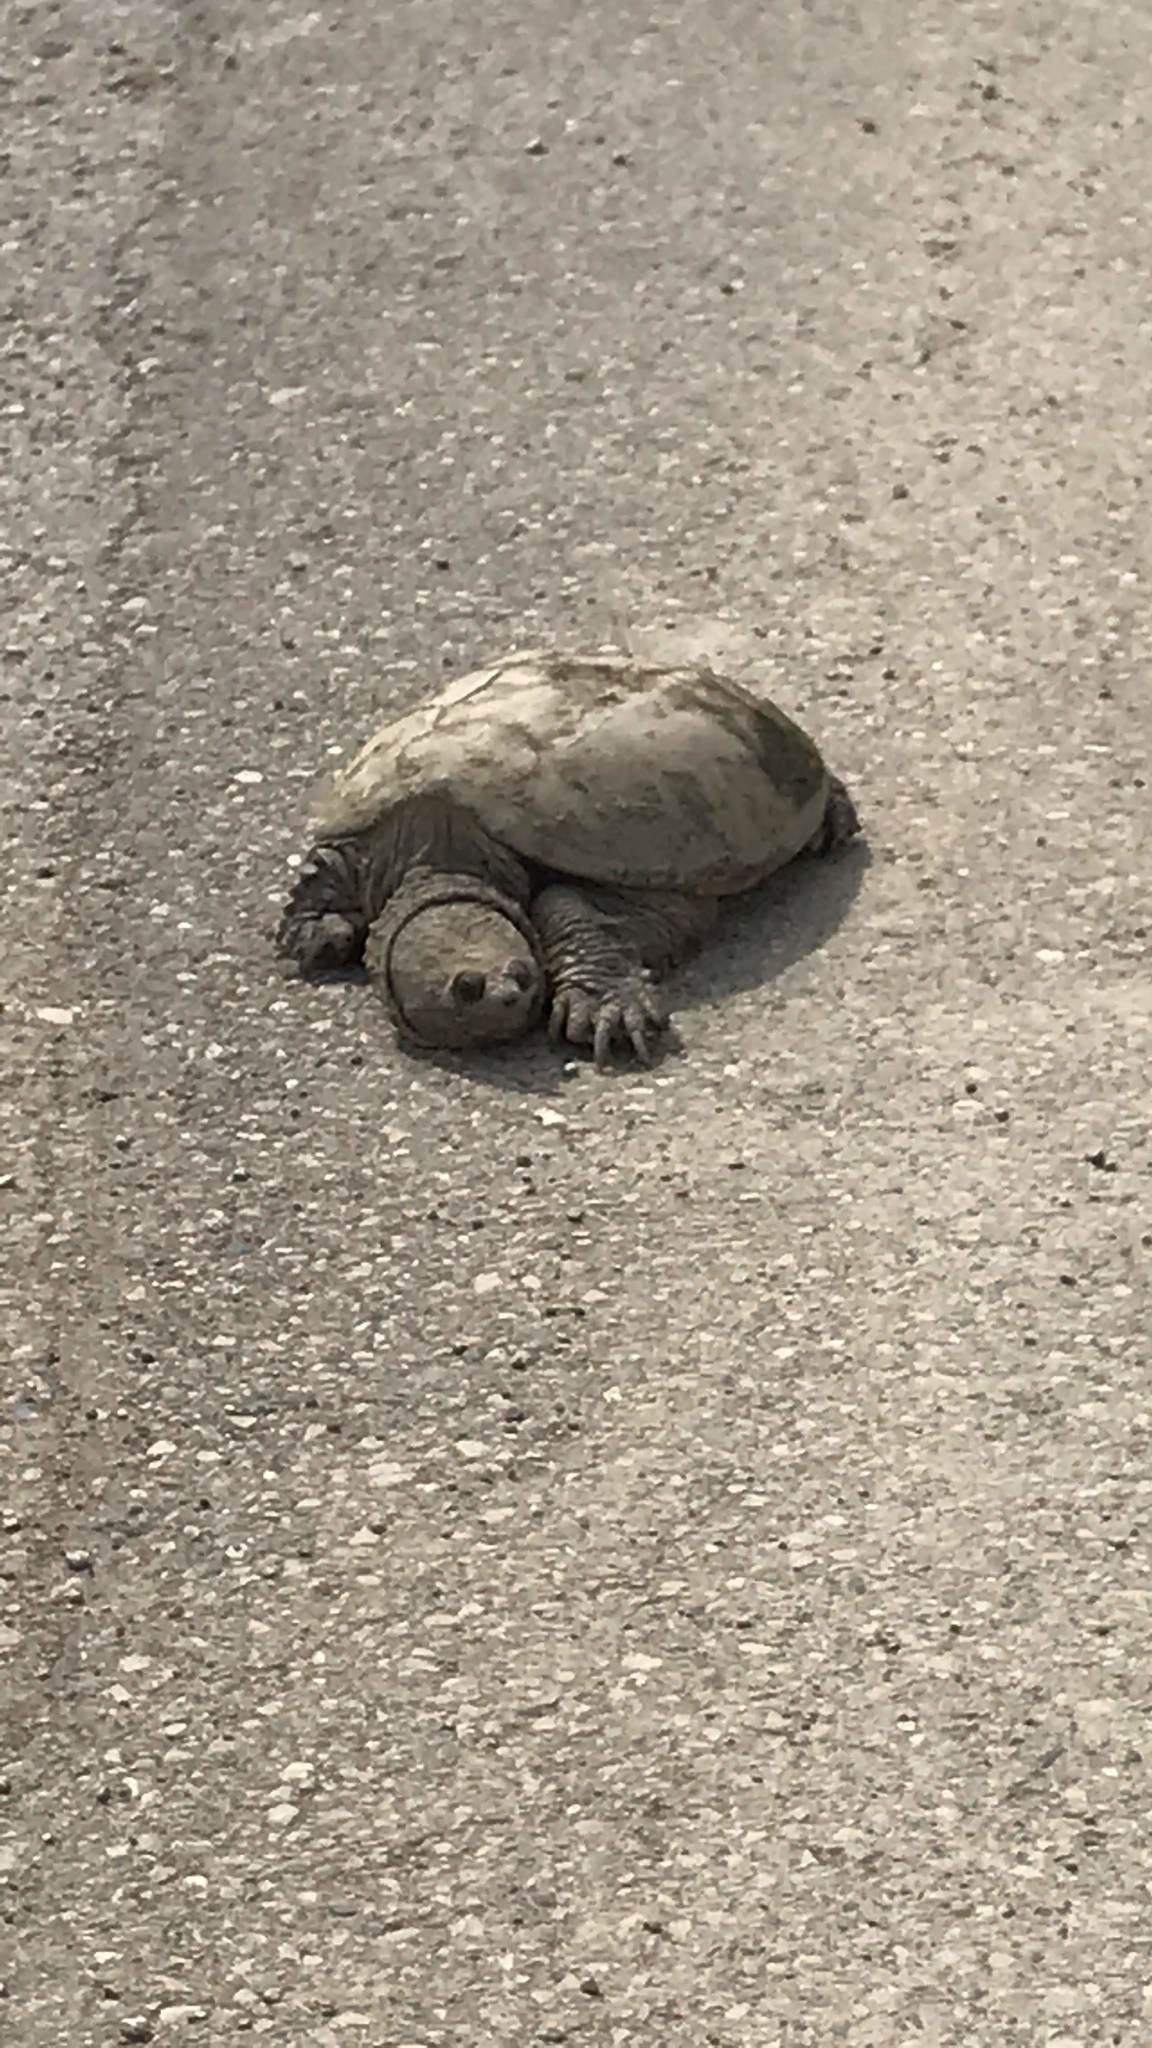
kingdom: Animalia
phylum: Chordata
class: Testudines
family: Chelydridae
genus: Chelydra
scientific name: Chelydra serpentina
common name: Common snapping turtle
